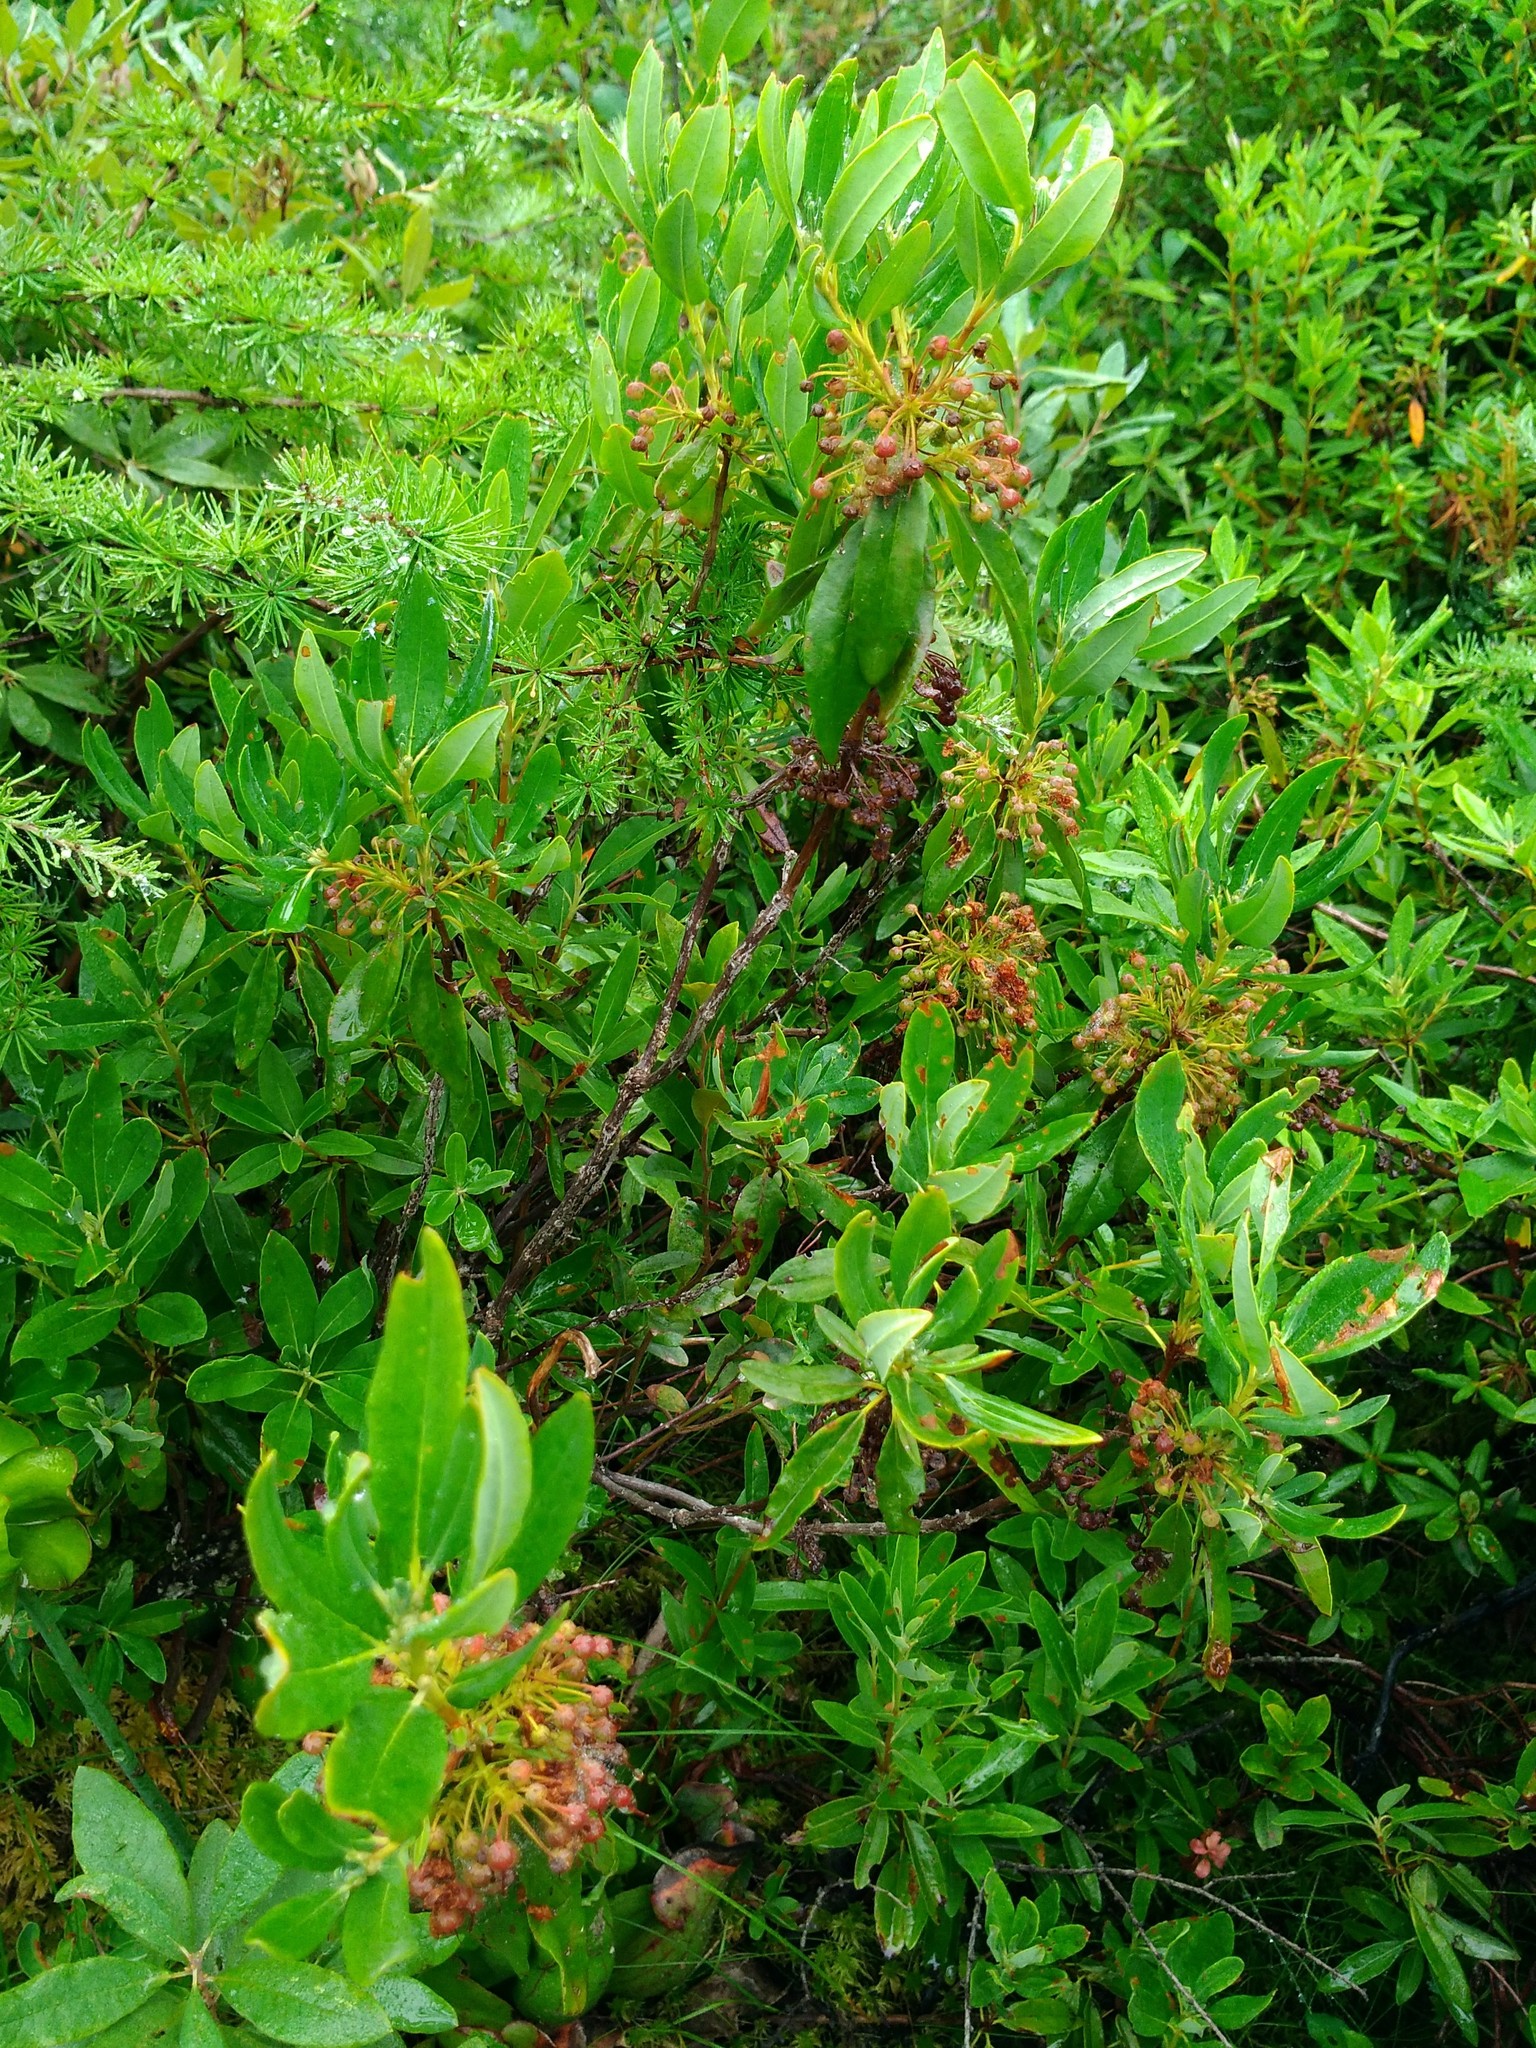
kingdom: Plantae
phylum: Tracheophyta
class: Magnoliopsida
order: Ericales
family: Ericaceae
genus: Kalmia
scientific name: Kalmia angustifolia
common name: Sheep-laurel
